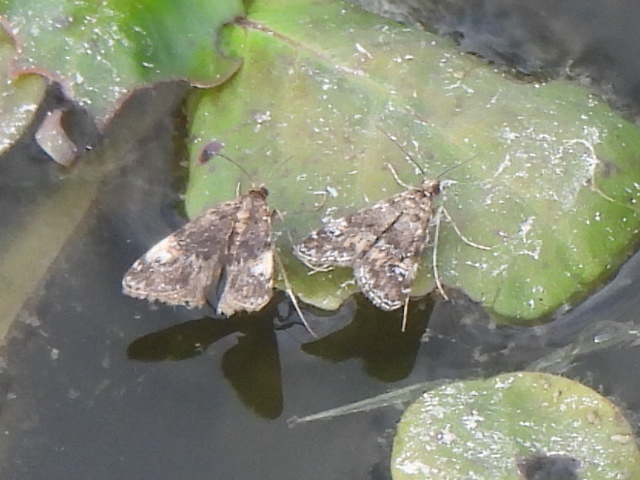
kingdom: Animalia
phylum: Arthropoda
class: Insecta
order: Lepidoptera
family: Crambidae
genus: Elophila
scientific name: Elophila obliteralis
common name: Waterlily leafcutter moth
